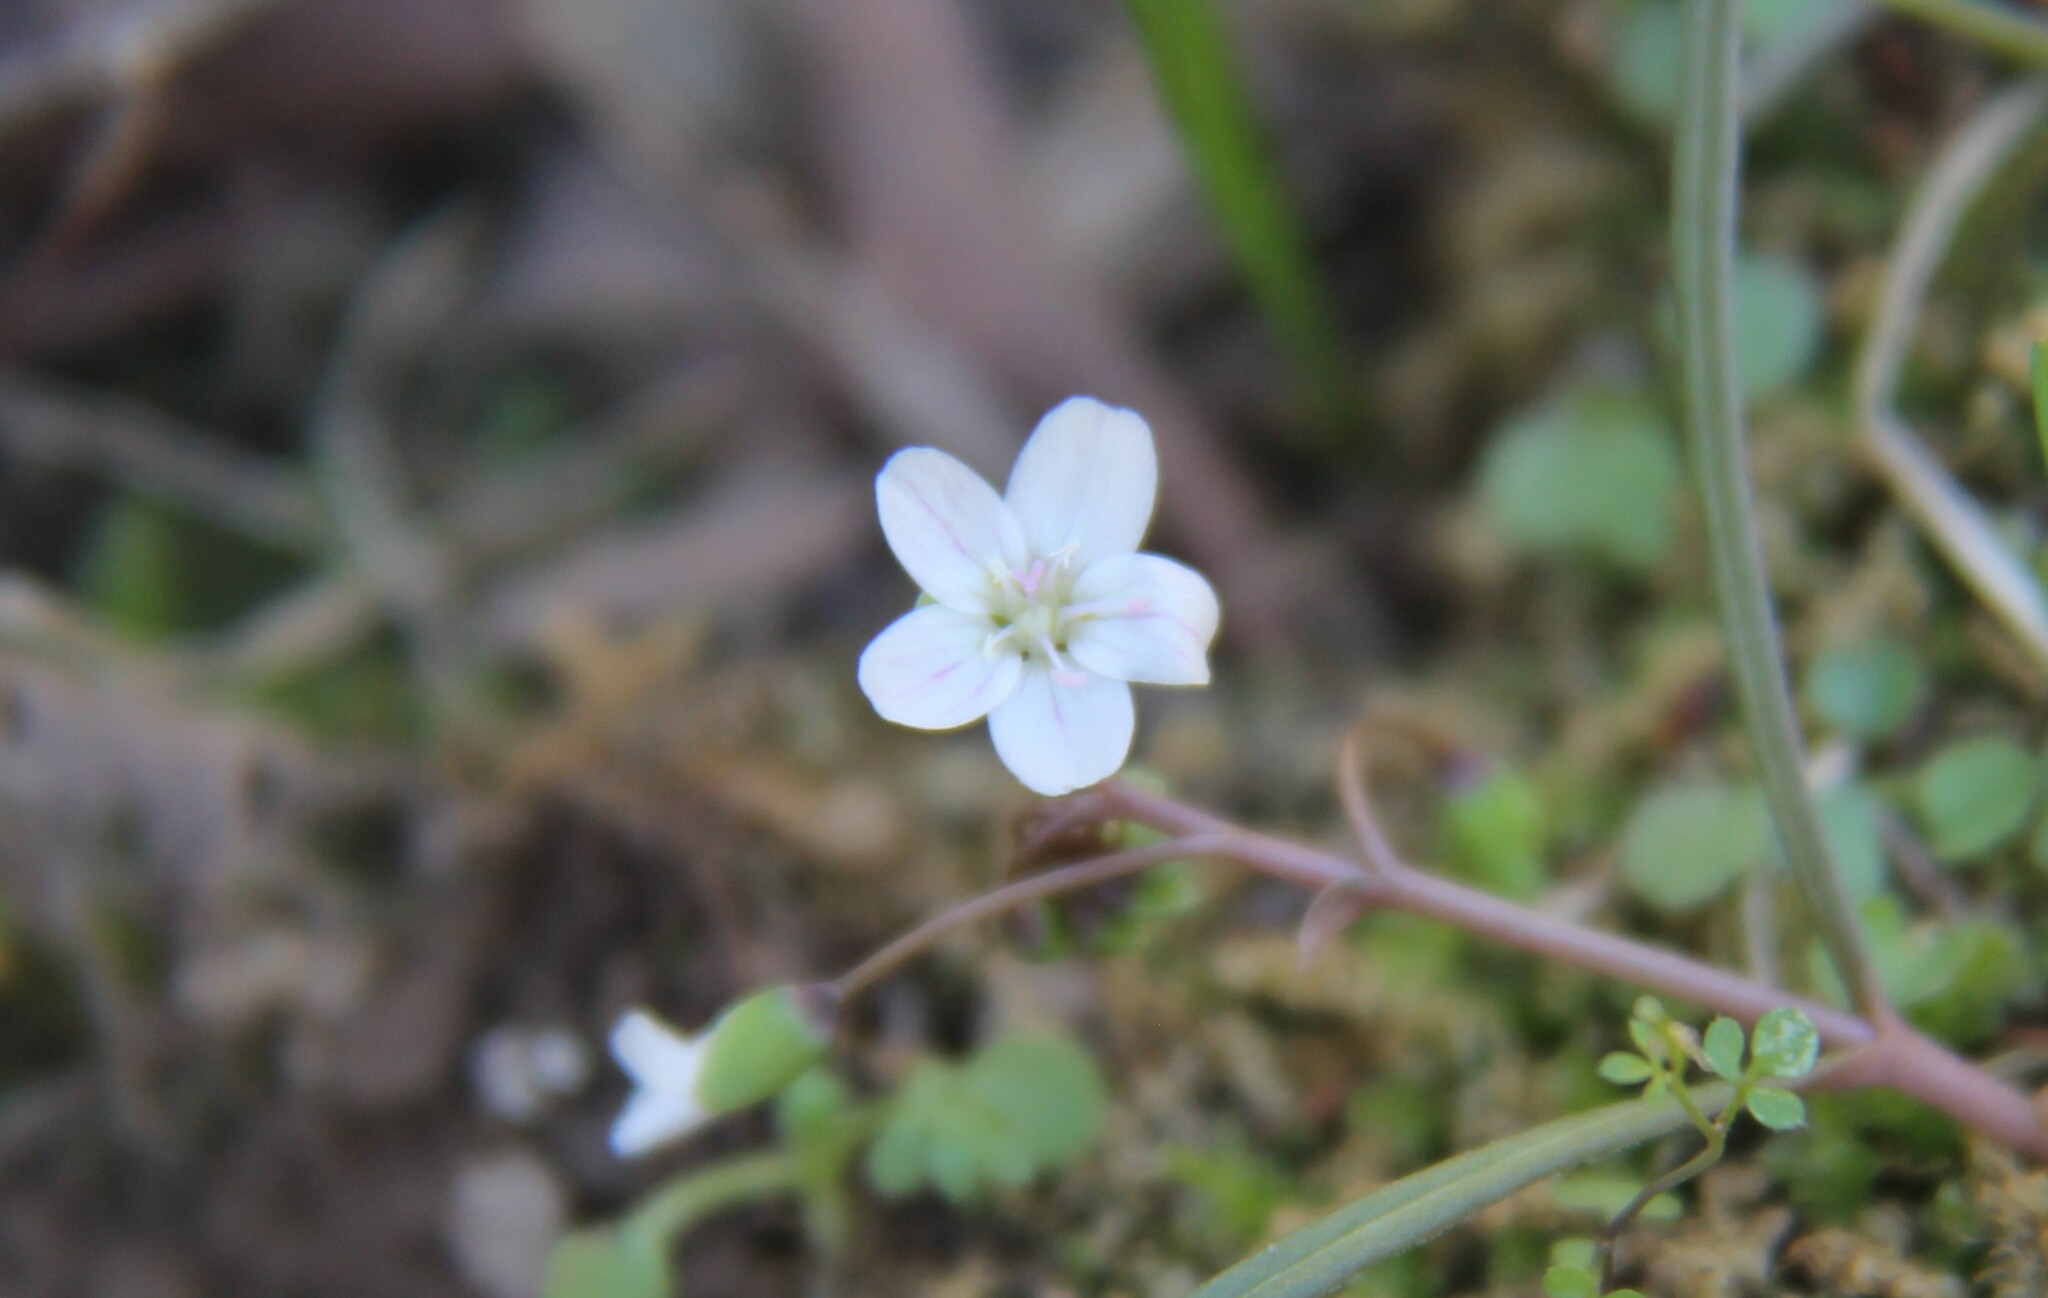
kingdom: Plantae
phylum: Tracheophyta
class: Magnoliopsida
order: Caryophyllales
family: Montiaceae
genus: Claytonia
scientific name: Claytonia virginica
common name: Virginia springbeauty
